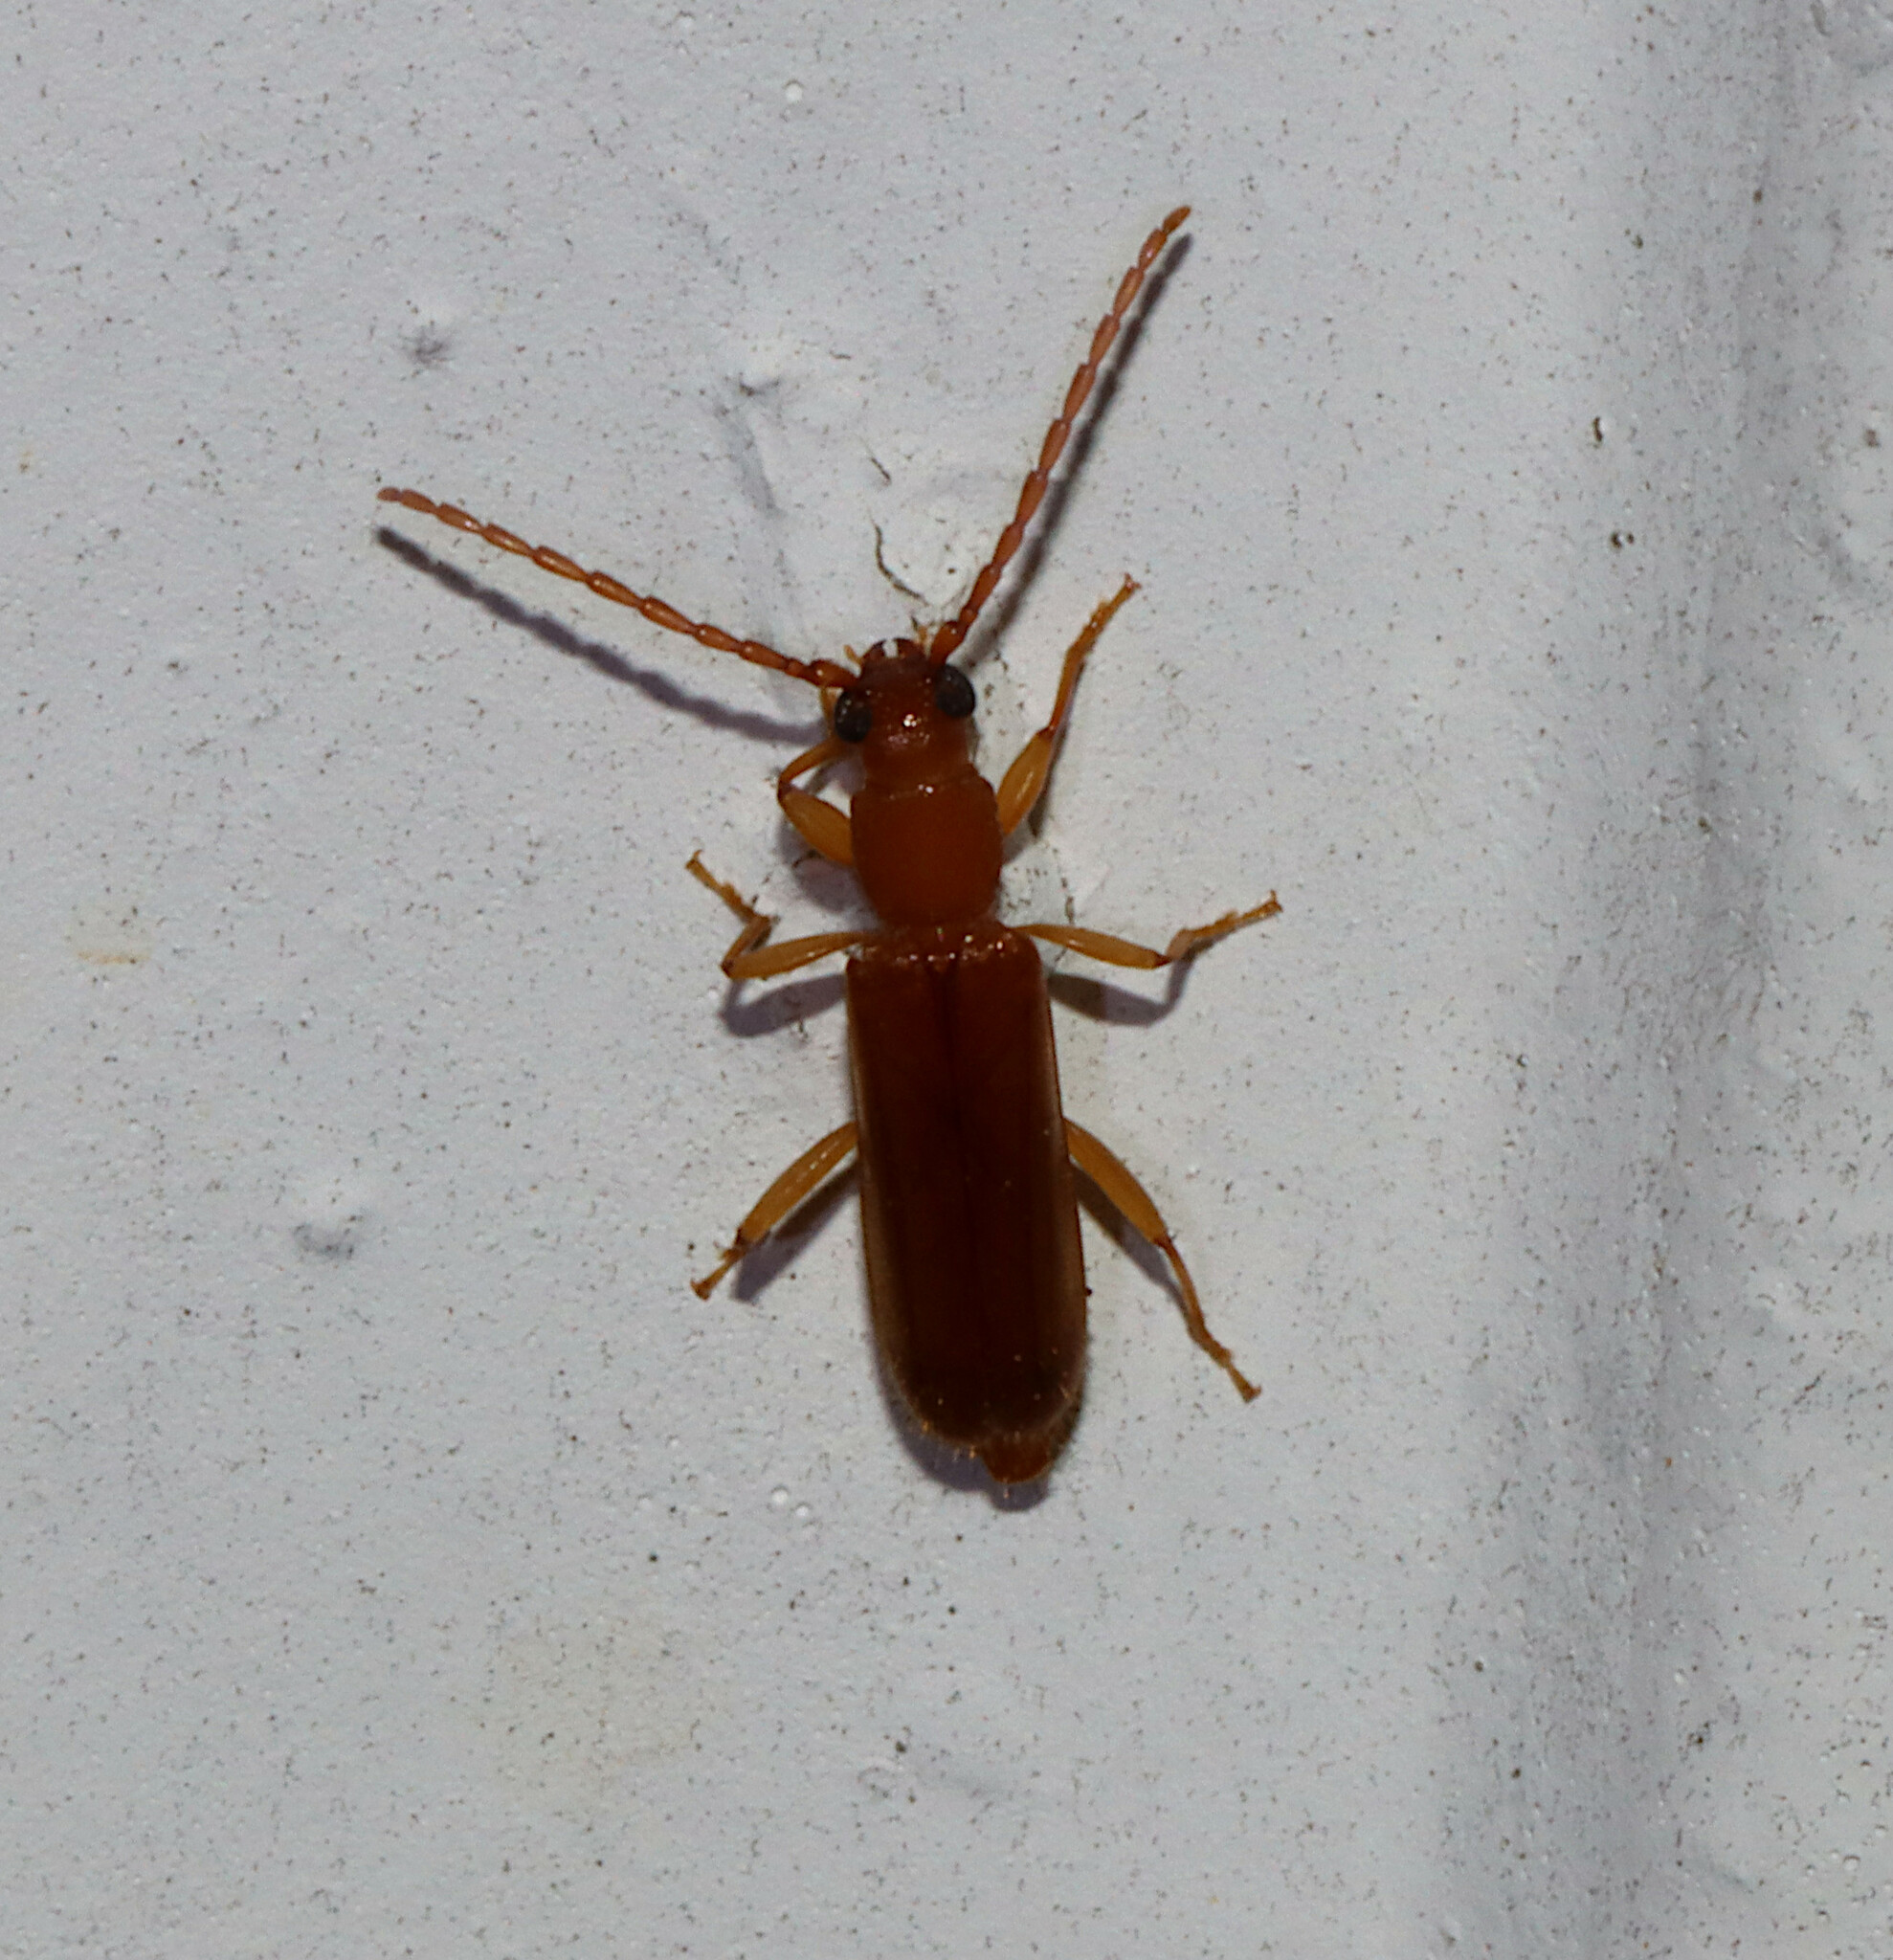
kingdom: Animalia
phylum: Arthropoda
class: Insecta
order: Coleoptera
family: Cerambycidae
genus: Smodicum
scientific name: Smodicum cucujiforme
